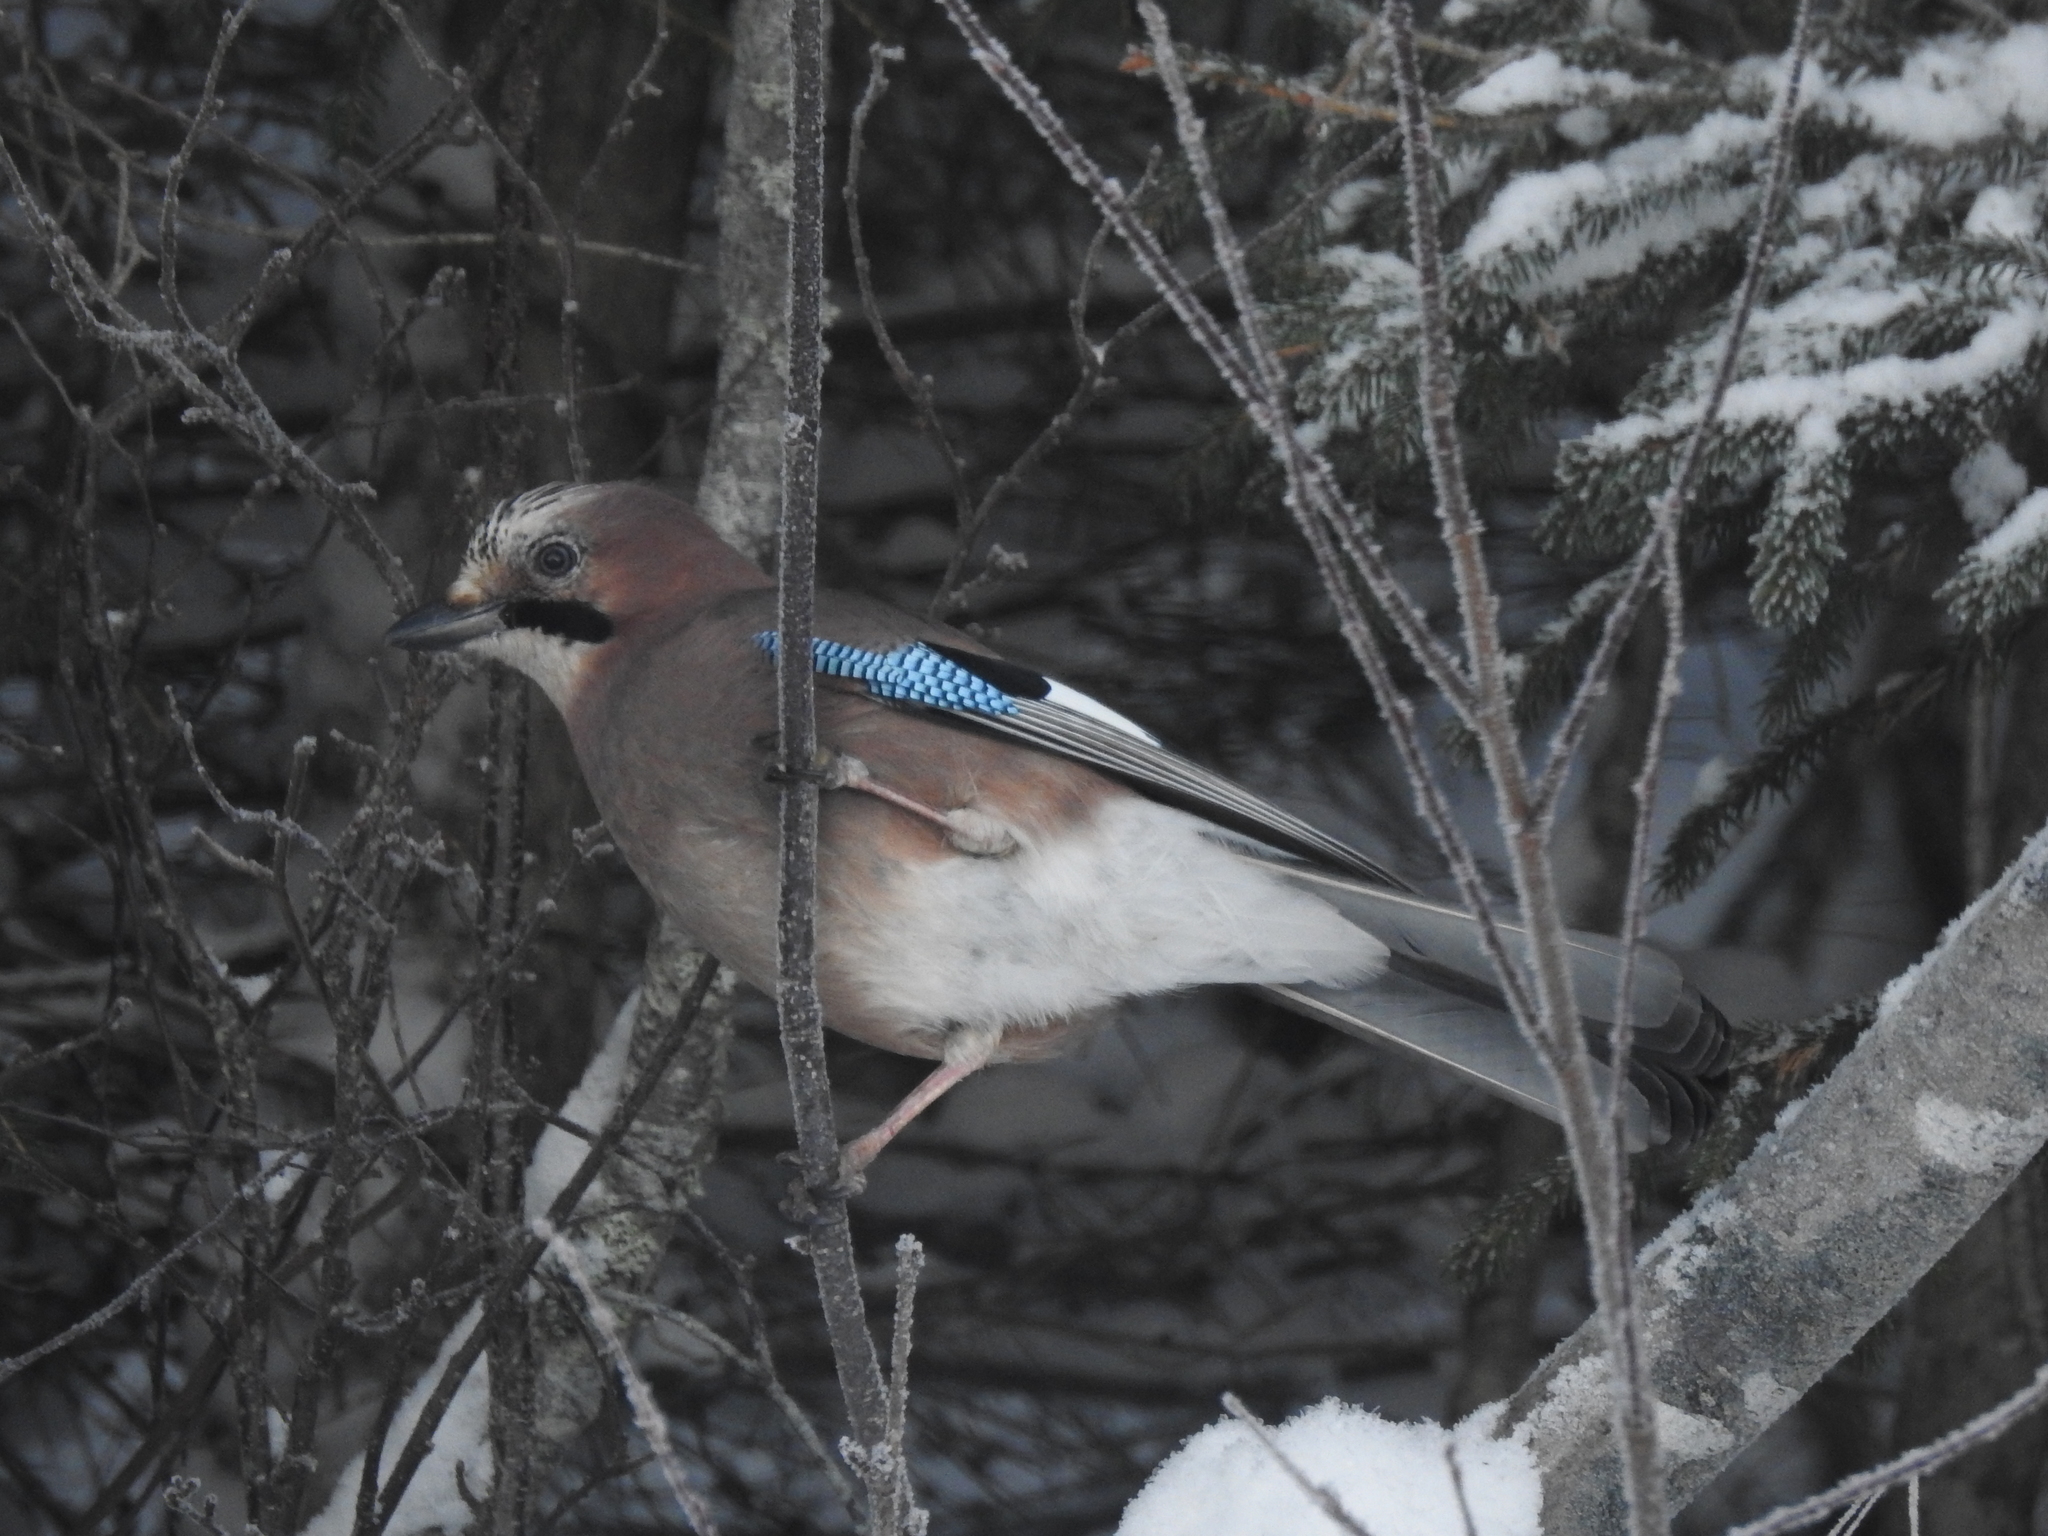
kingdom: Animalia
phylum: Chordata
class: Aves
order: Passeriformes
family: Corvidae
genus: Garrulus
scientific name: Garrulus glandarius
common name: Eurasian jay
